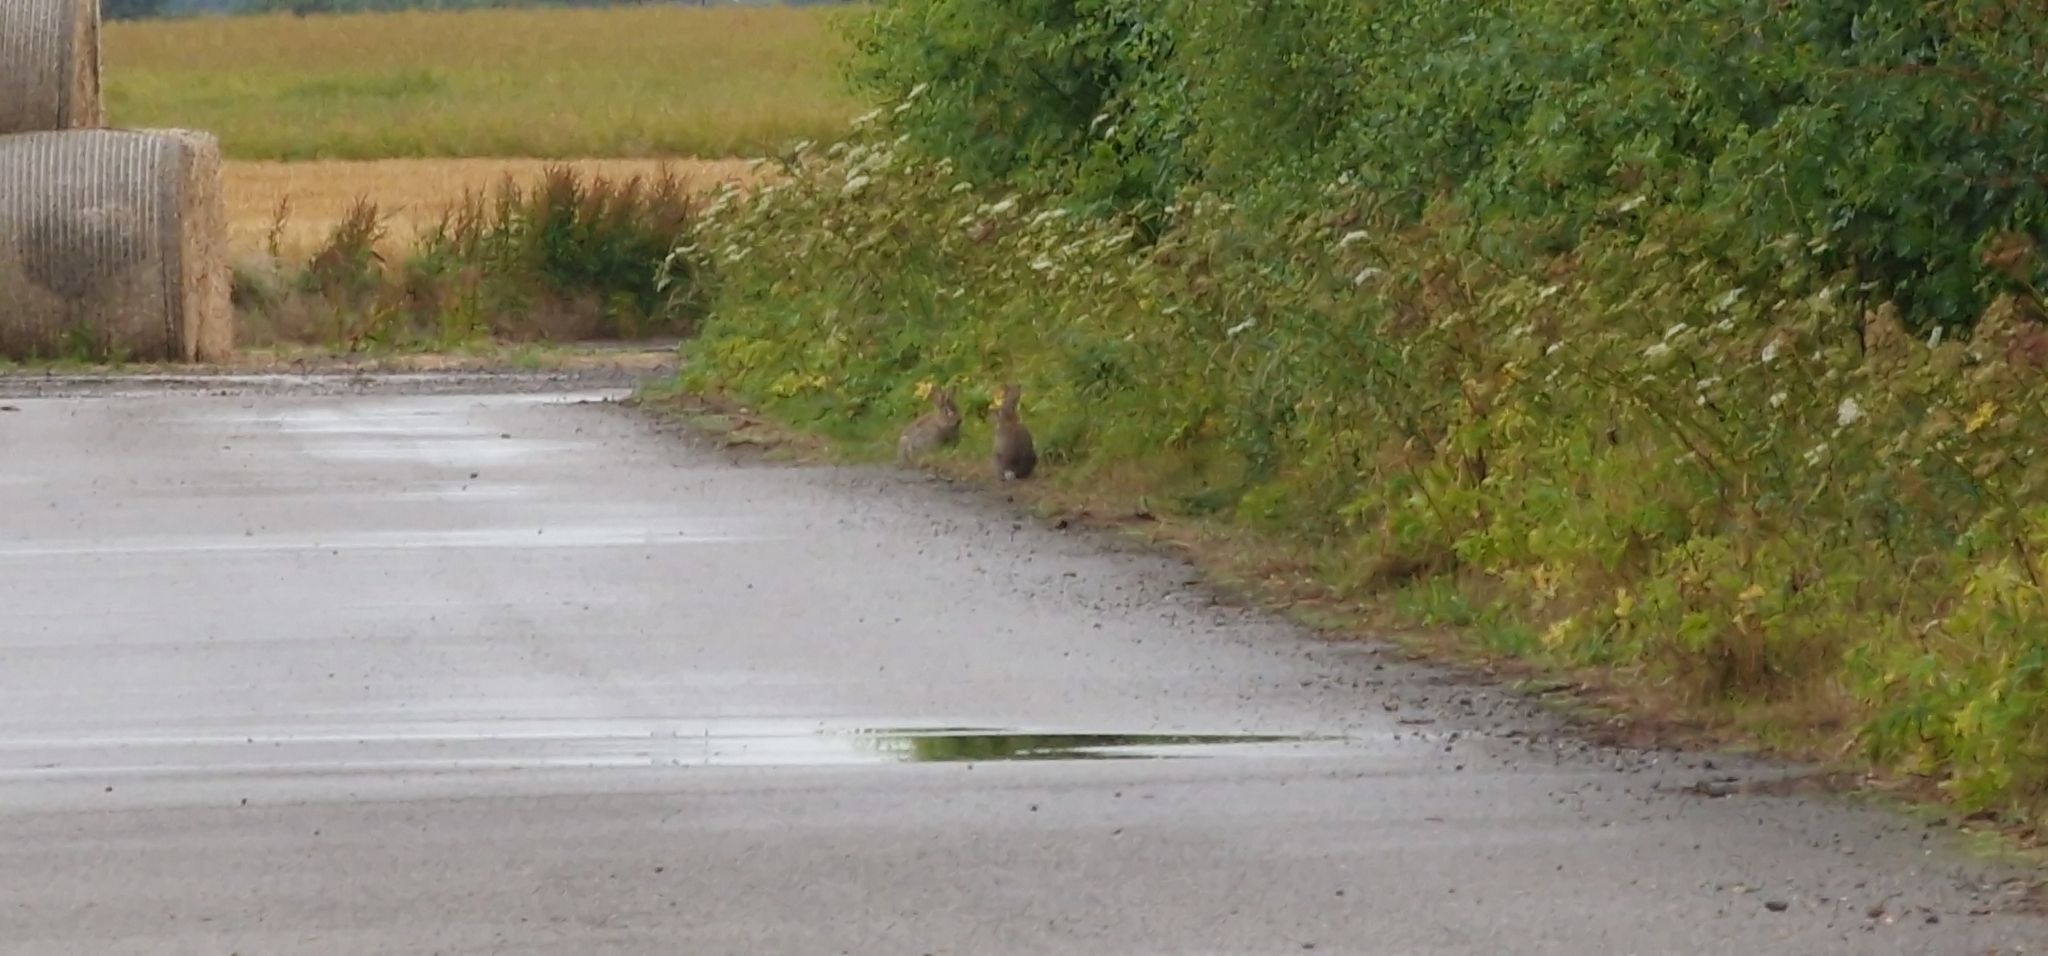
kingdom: Animalia
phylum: Chordata
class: Mammalia
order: Lagomorpha
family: Leporidae
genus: Oryctolagus
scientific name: Oryctolagus cuniculus
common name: European rabbit
